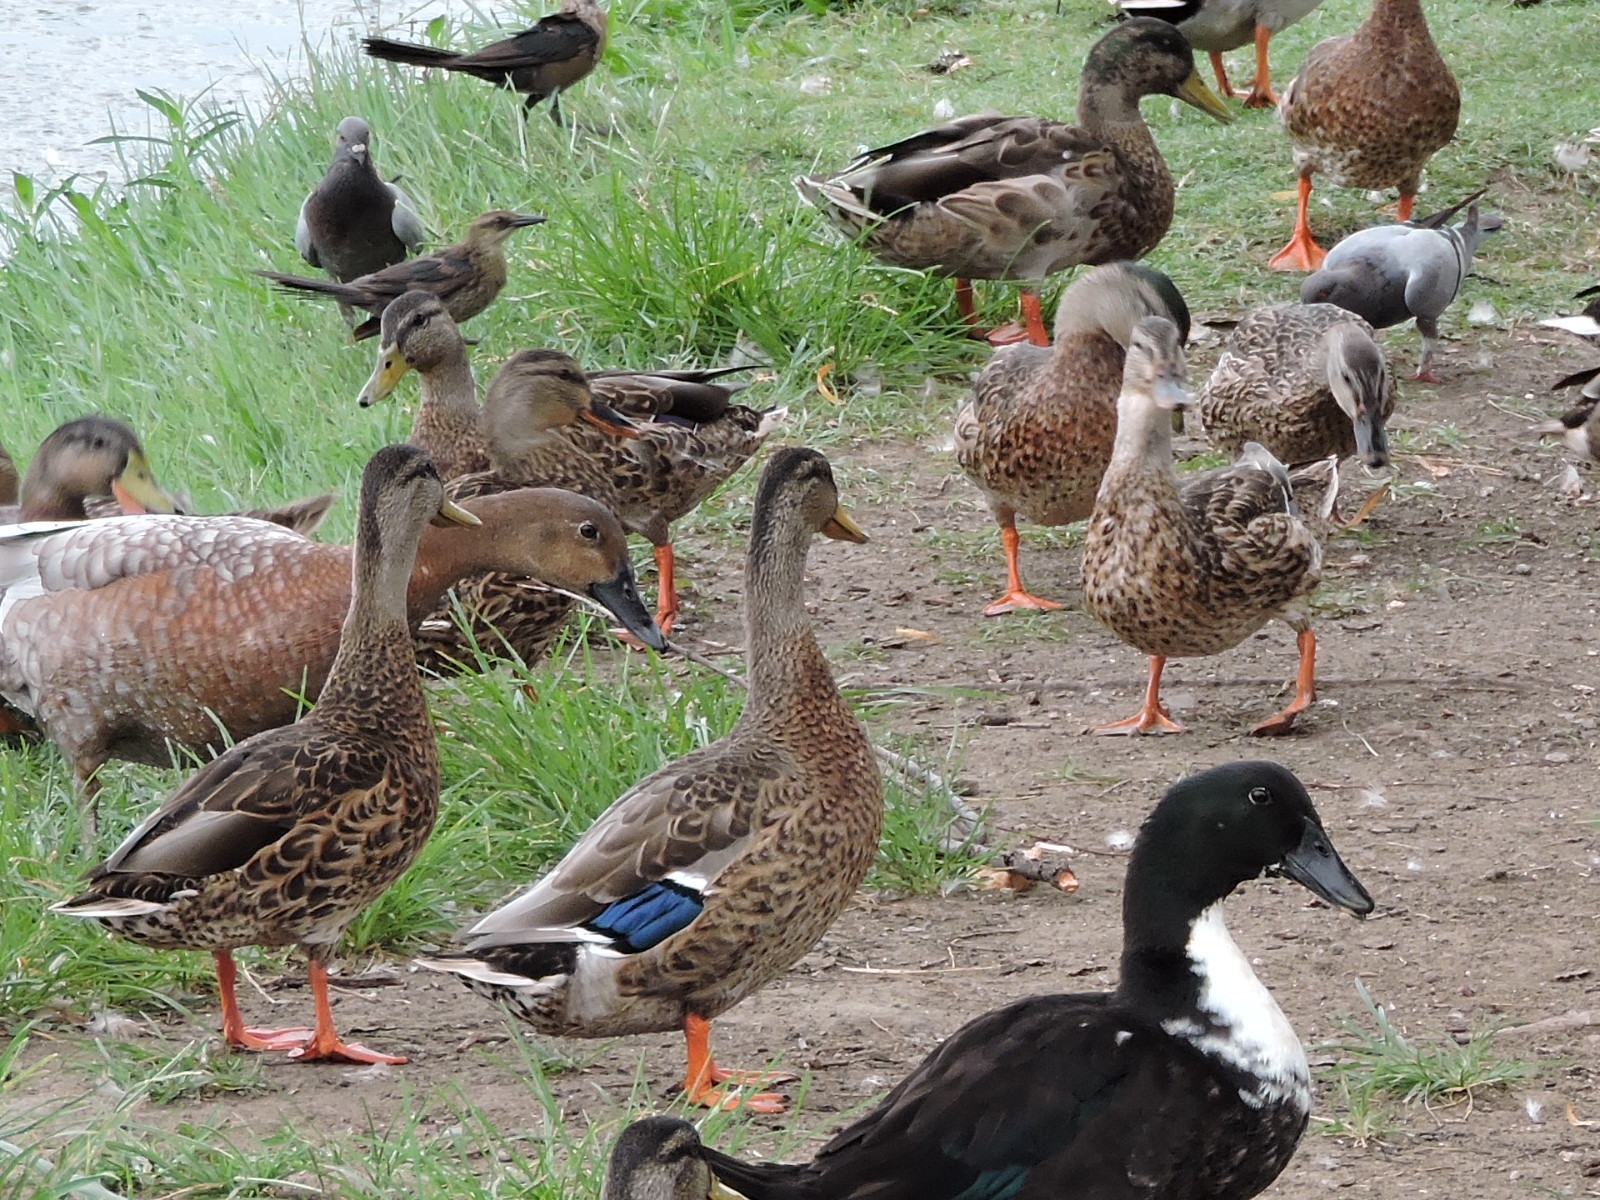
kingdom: Animalia
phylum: Chordata
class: Aves
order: Anseriformes
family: Anatidae
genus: Anas
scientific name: Anas platyrhynchos
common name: Mallard
